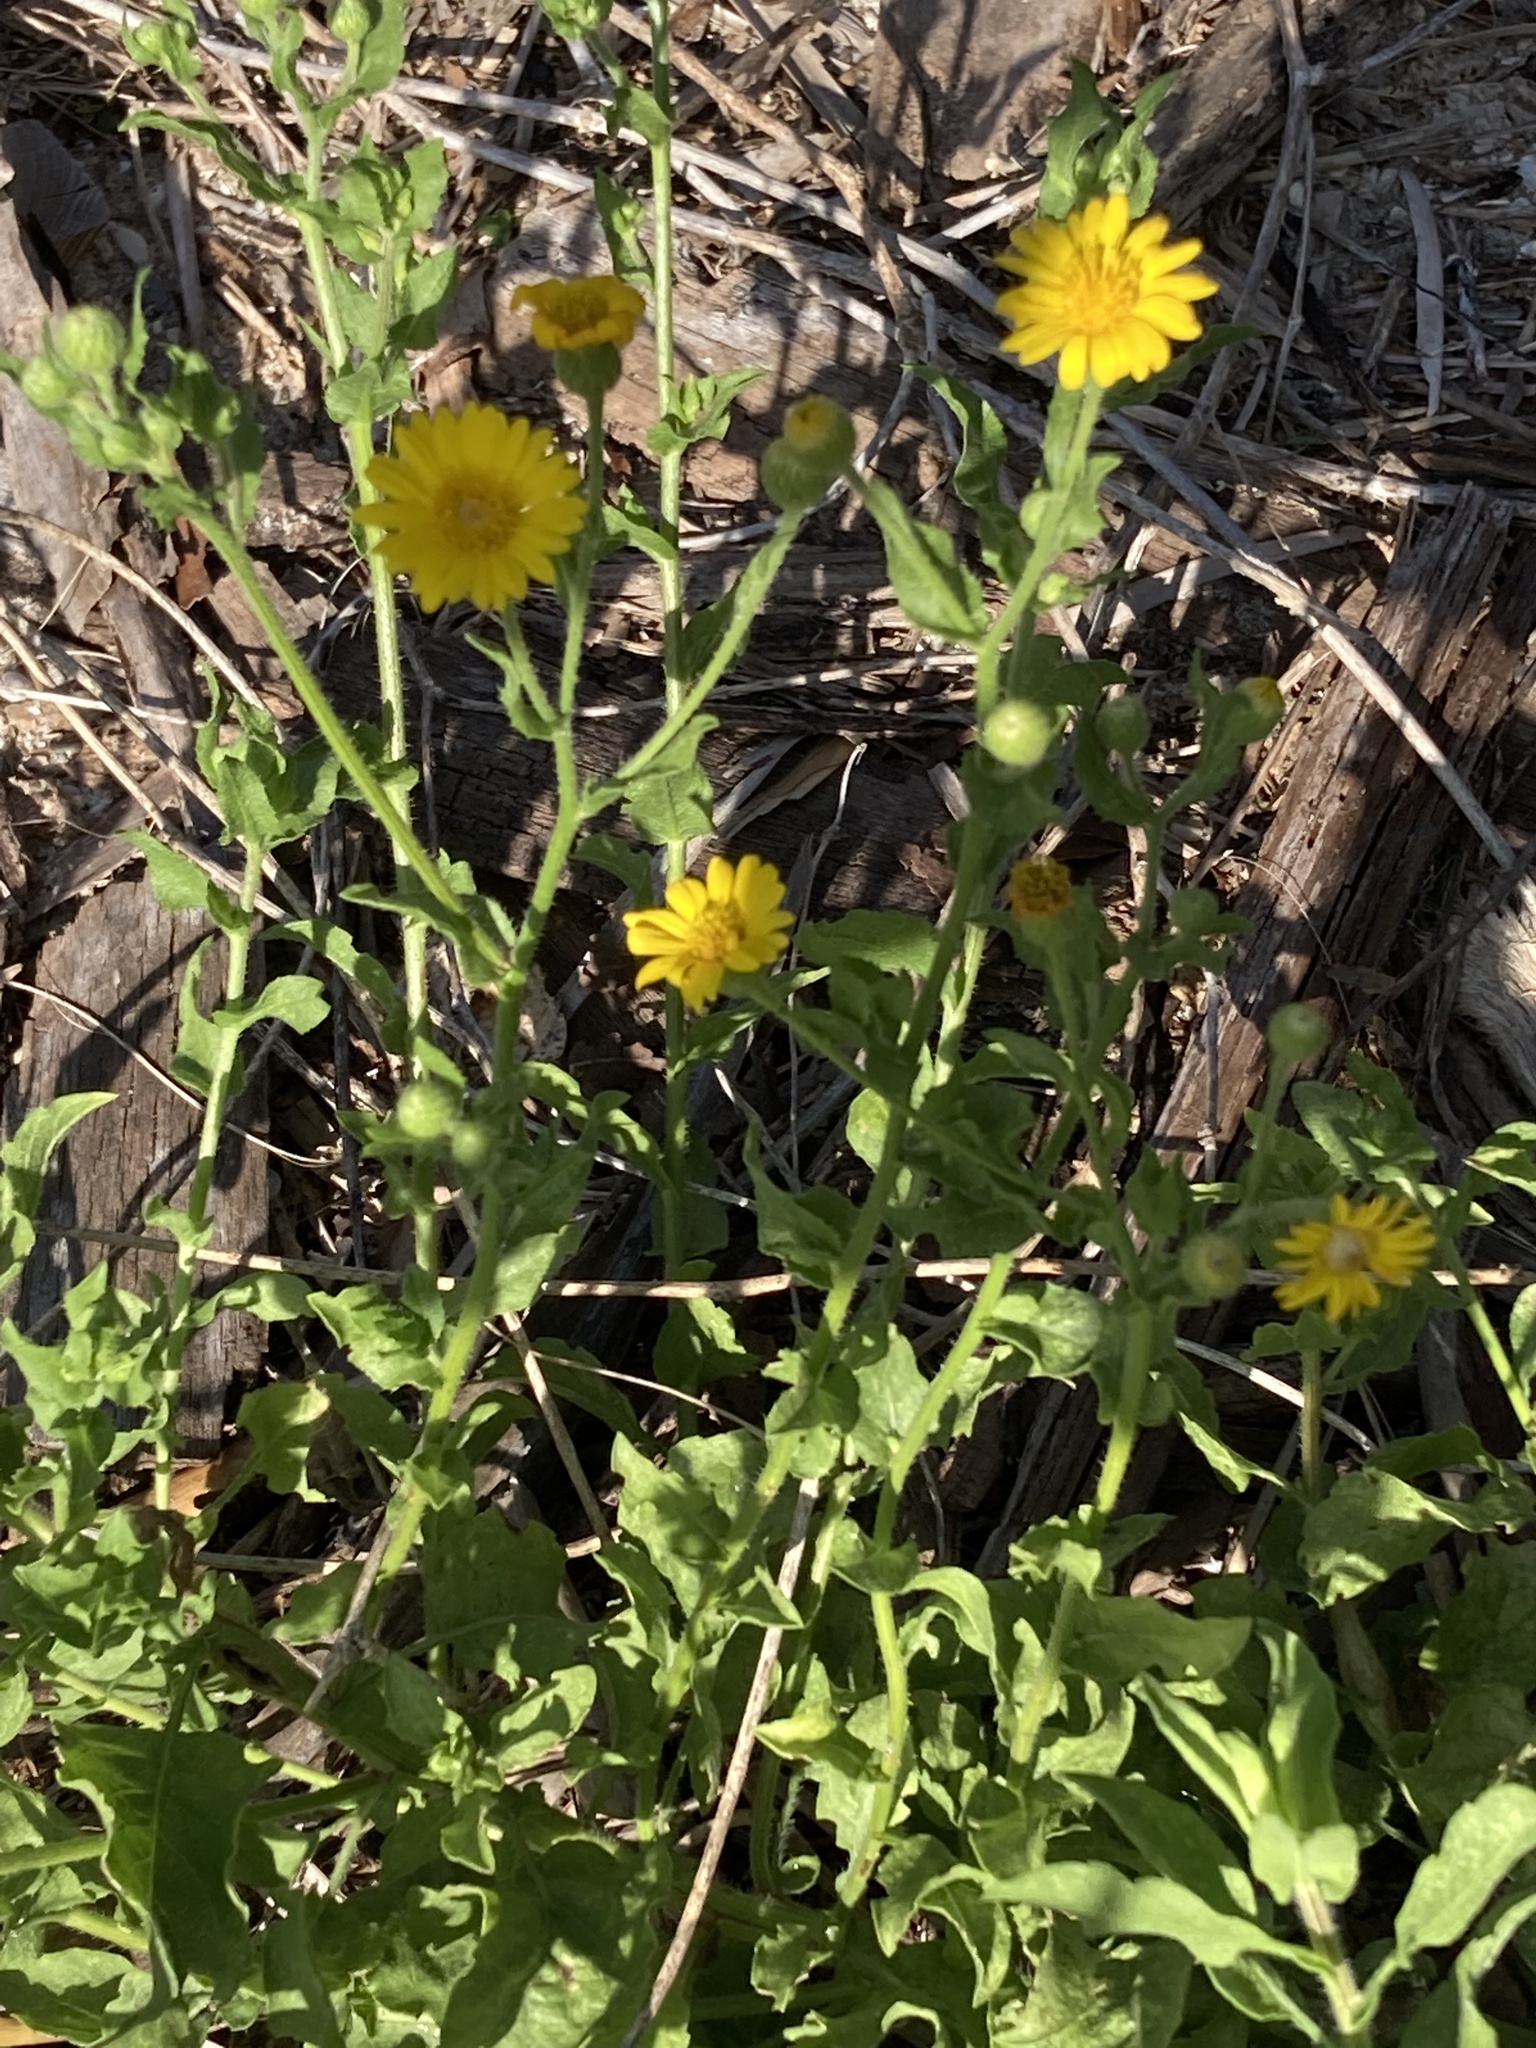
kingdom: Plantae
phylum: Tracheophyta
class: Magnoliopsida
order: Asterales
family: Asteraceae
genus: Heterotheca
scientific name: Heterotheca subaxillaris
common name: Camphorweed
